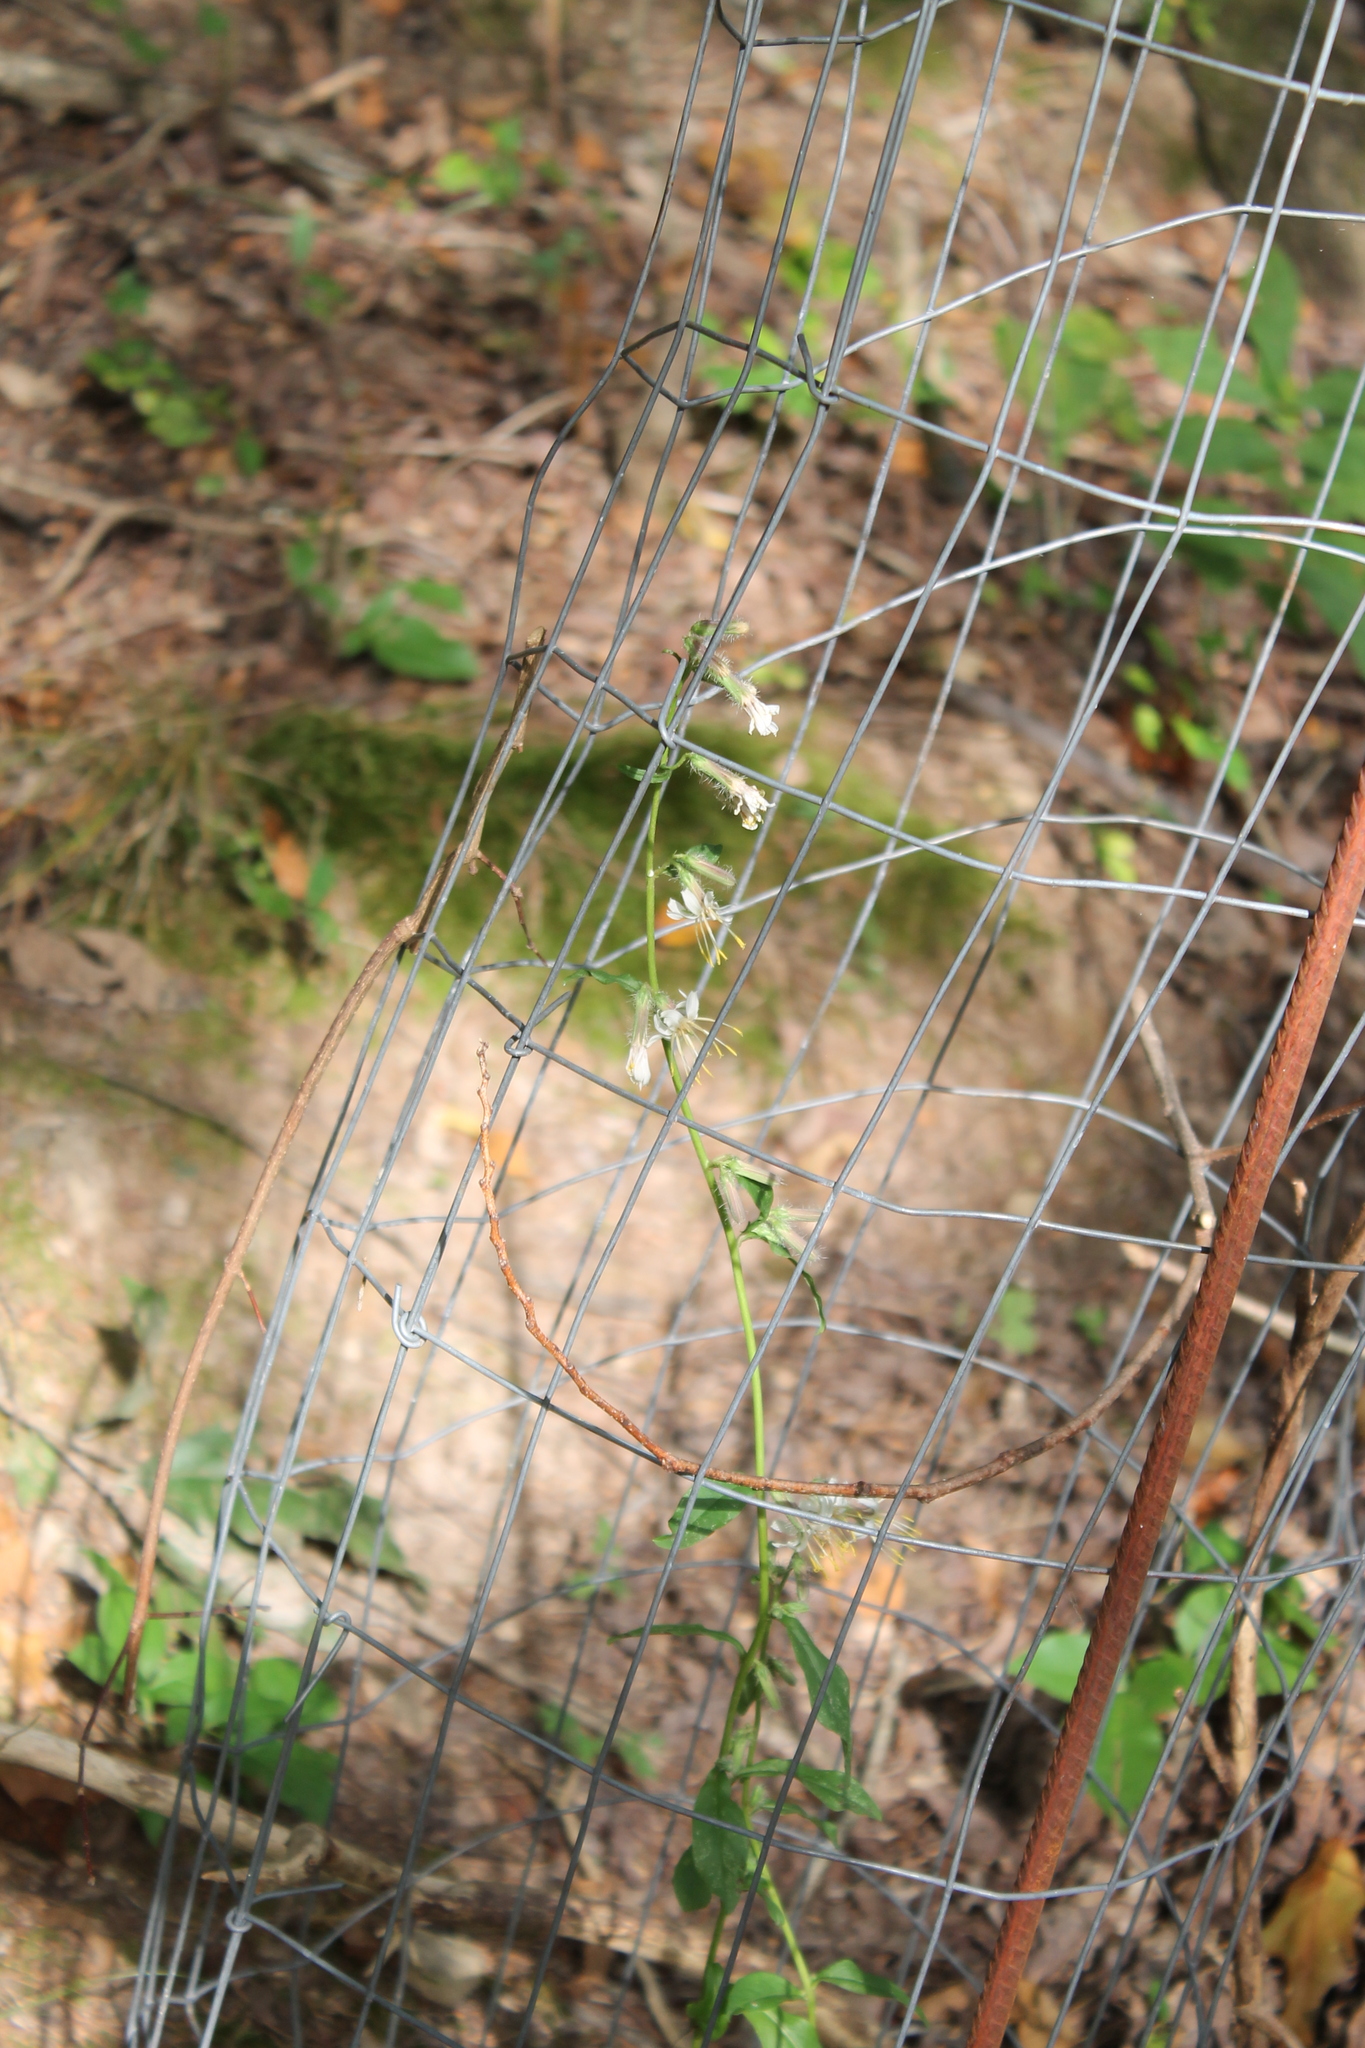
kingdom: Plantae
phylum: Tracheophyta
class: Magnoliopsida
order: Asterales
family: Asteraceae
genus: Nabalus
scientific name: Nabalus barbata
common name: Barbed rattlesnakeroot
